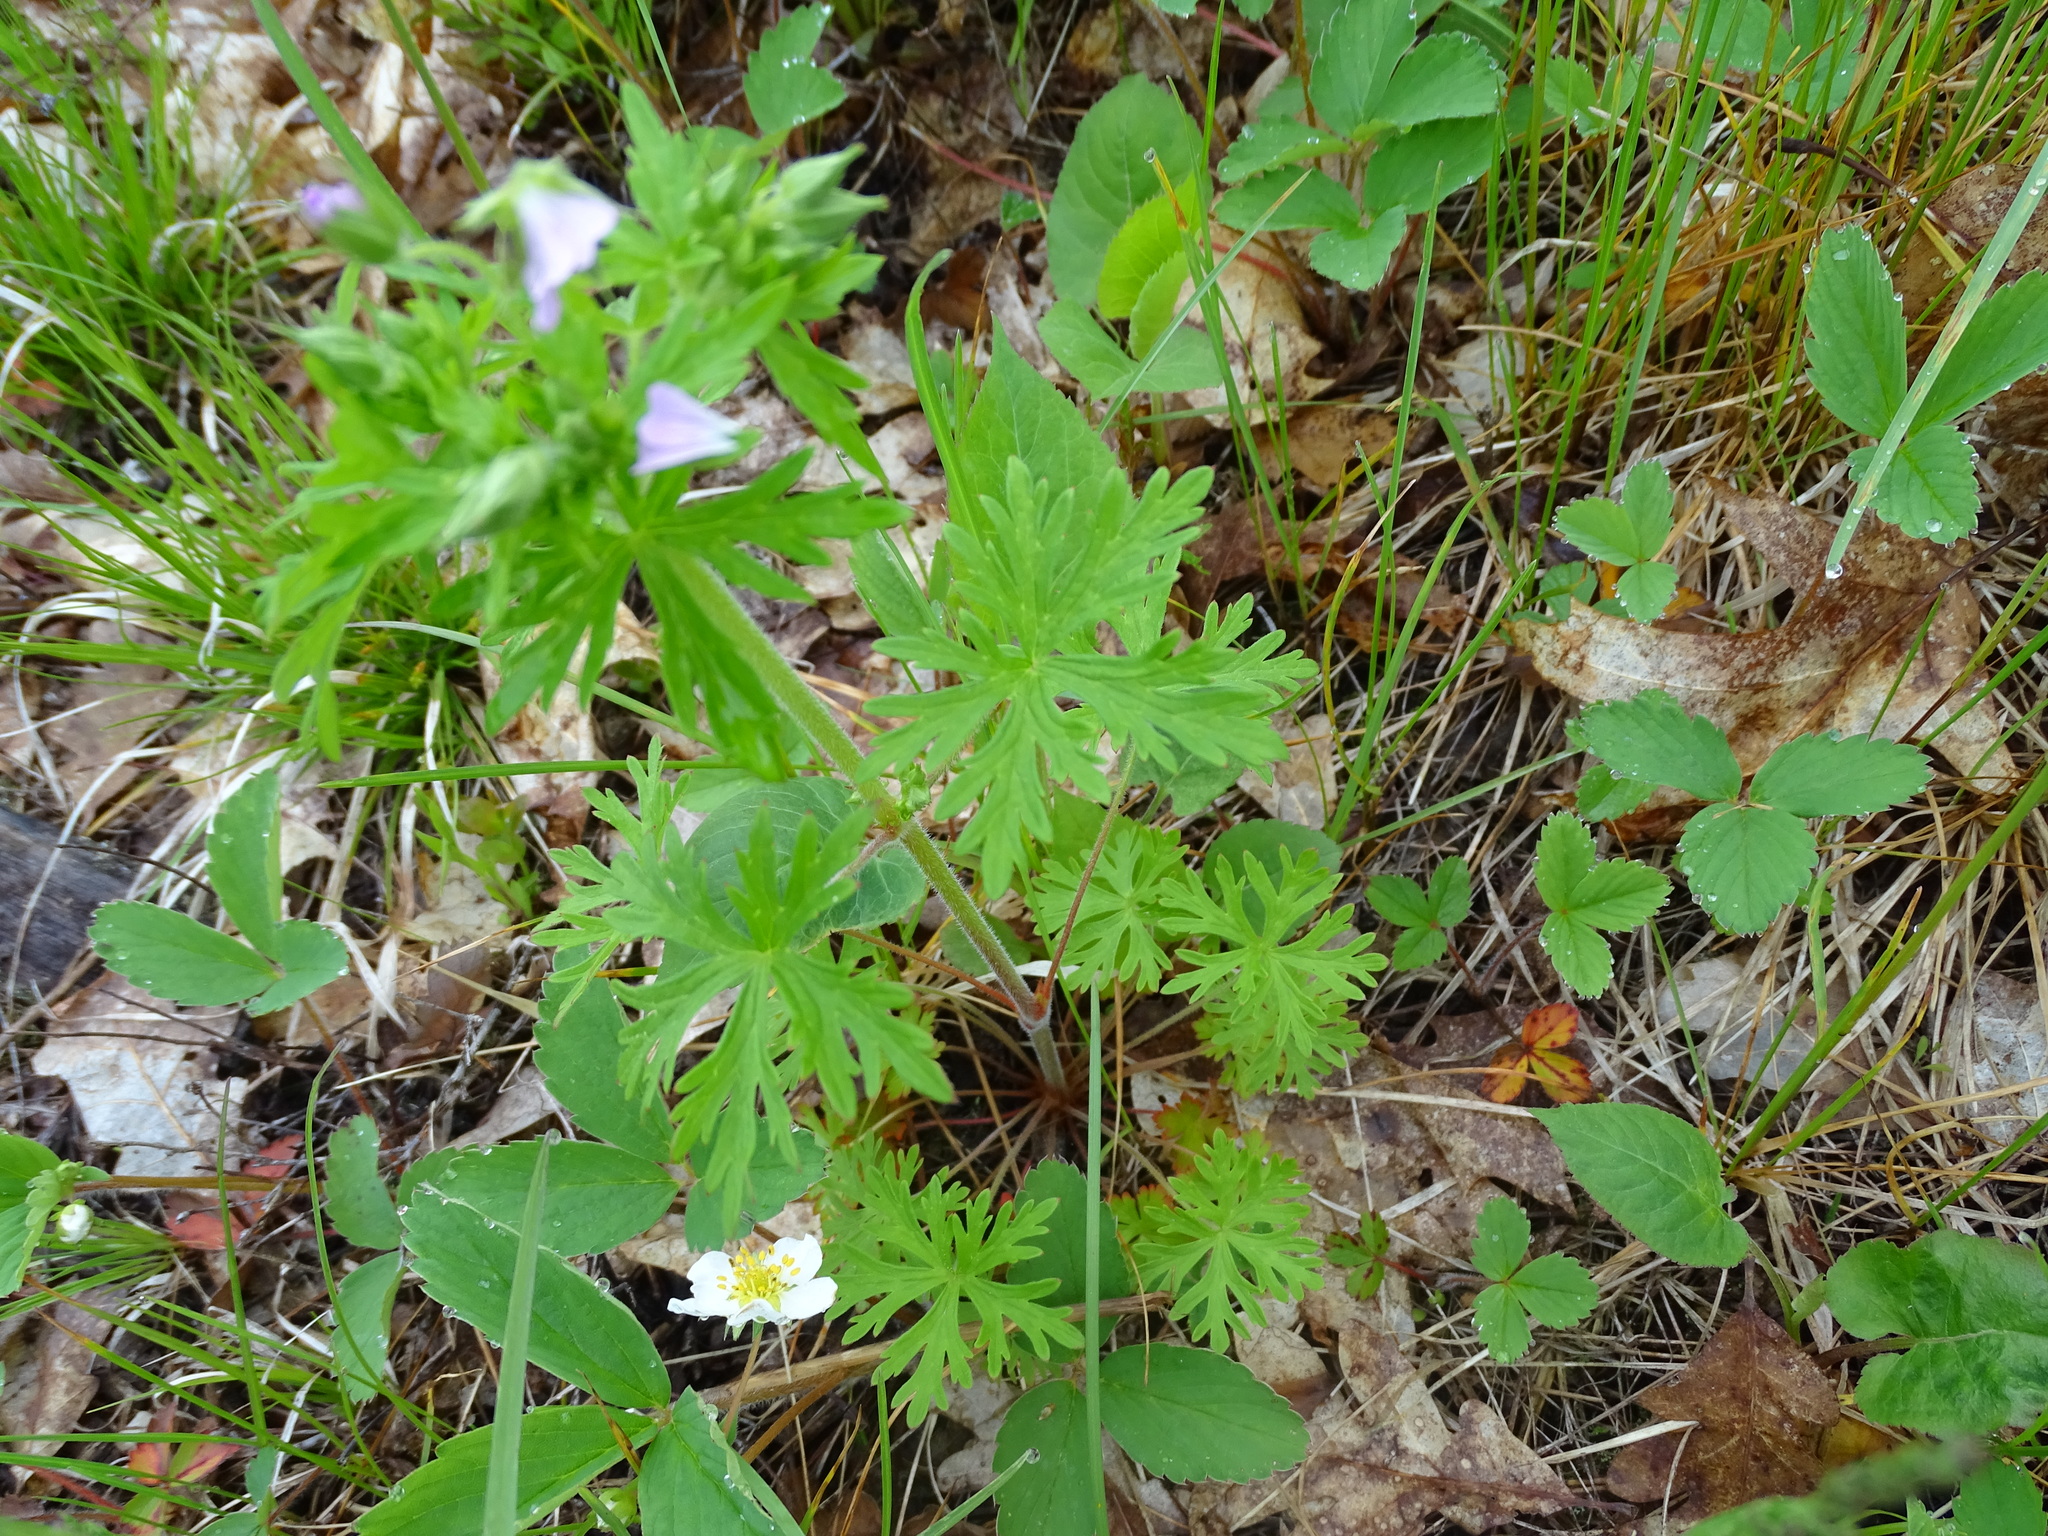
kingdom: Plantae
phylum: Tracheophyta
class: Magnoliopsida
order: Geraniales
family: Geraniaceae
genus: Geranium
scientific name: Geranium bicknellii
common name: Bicknell's cranesbill
